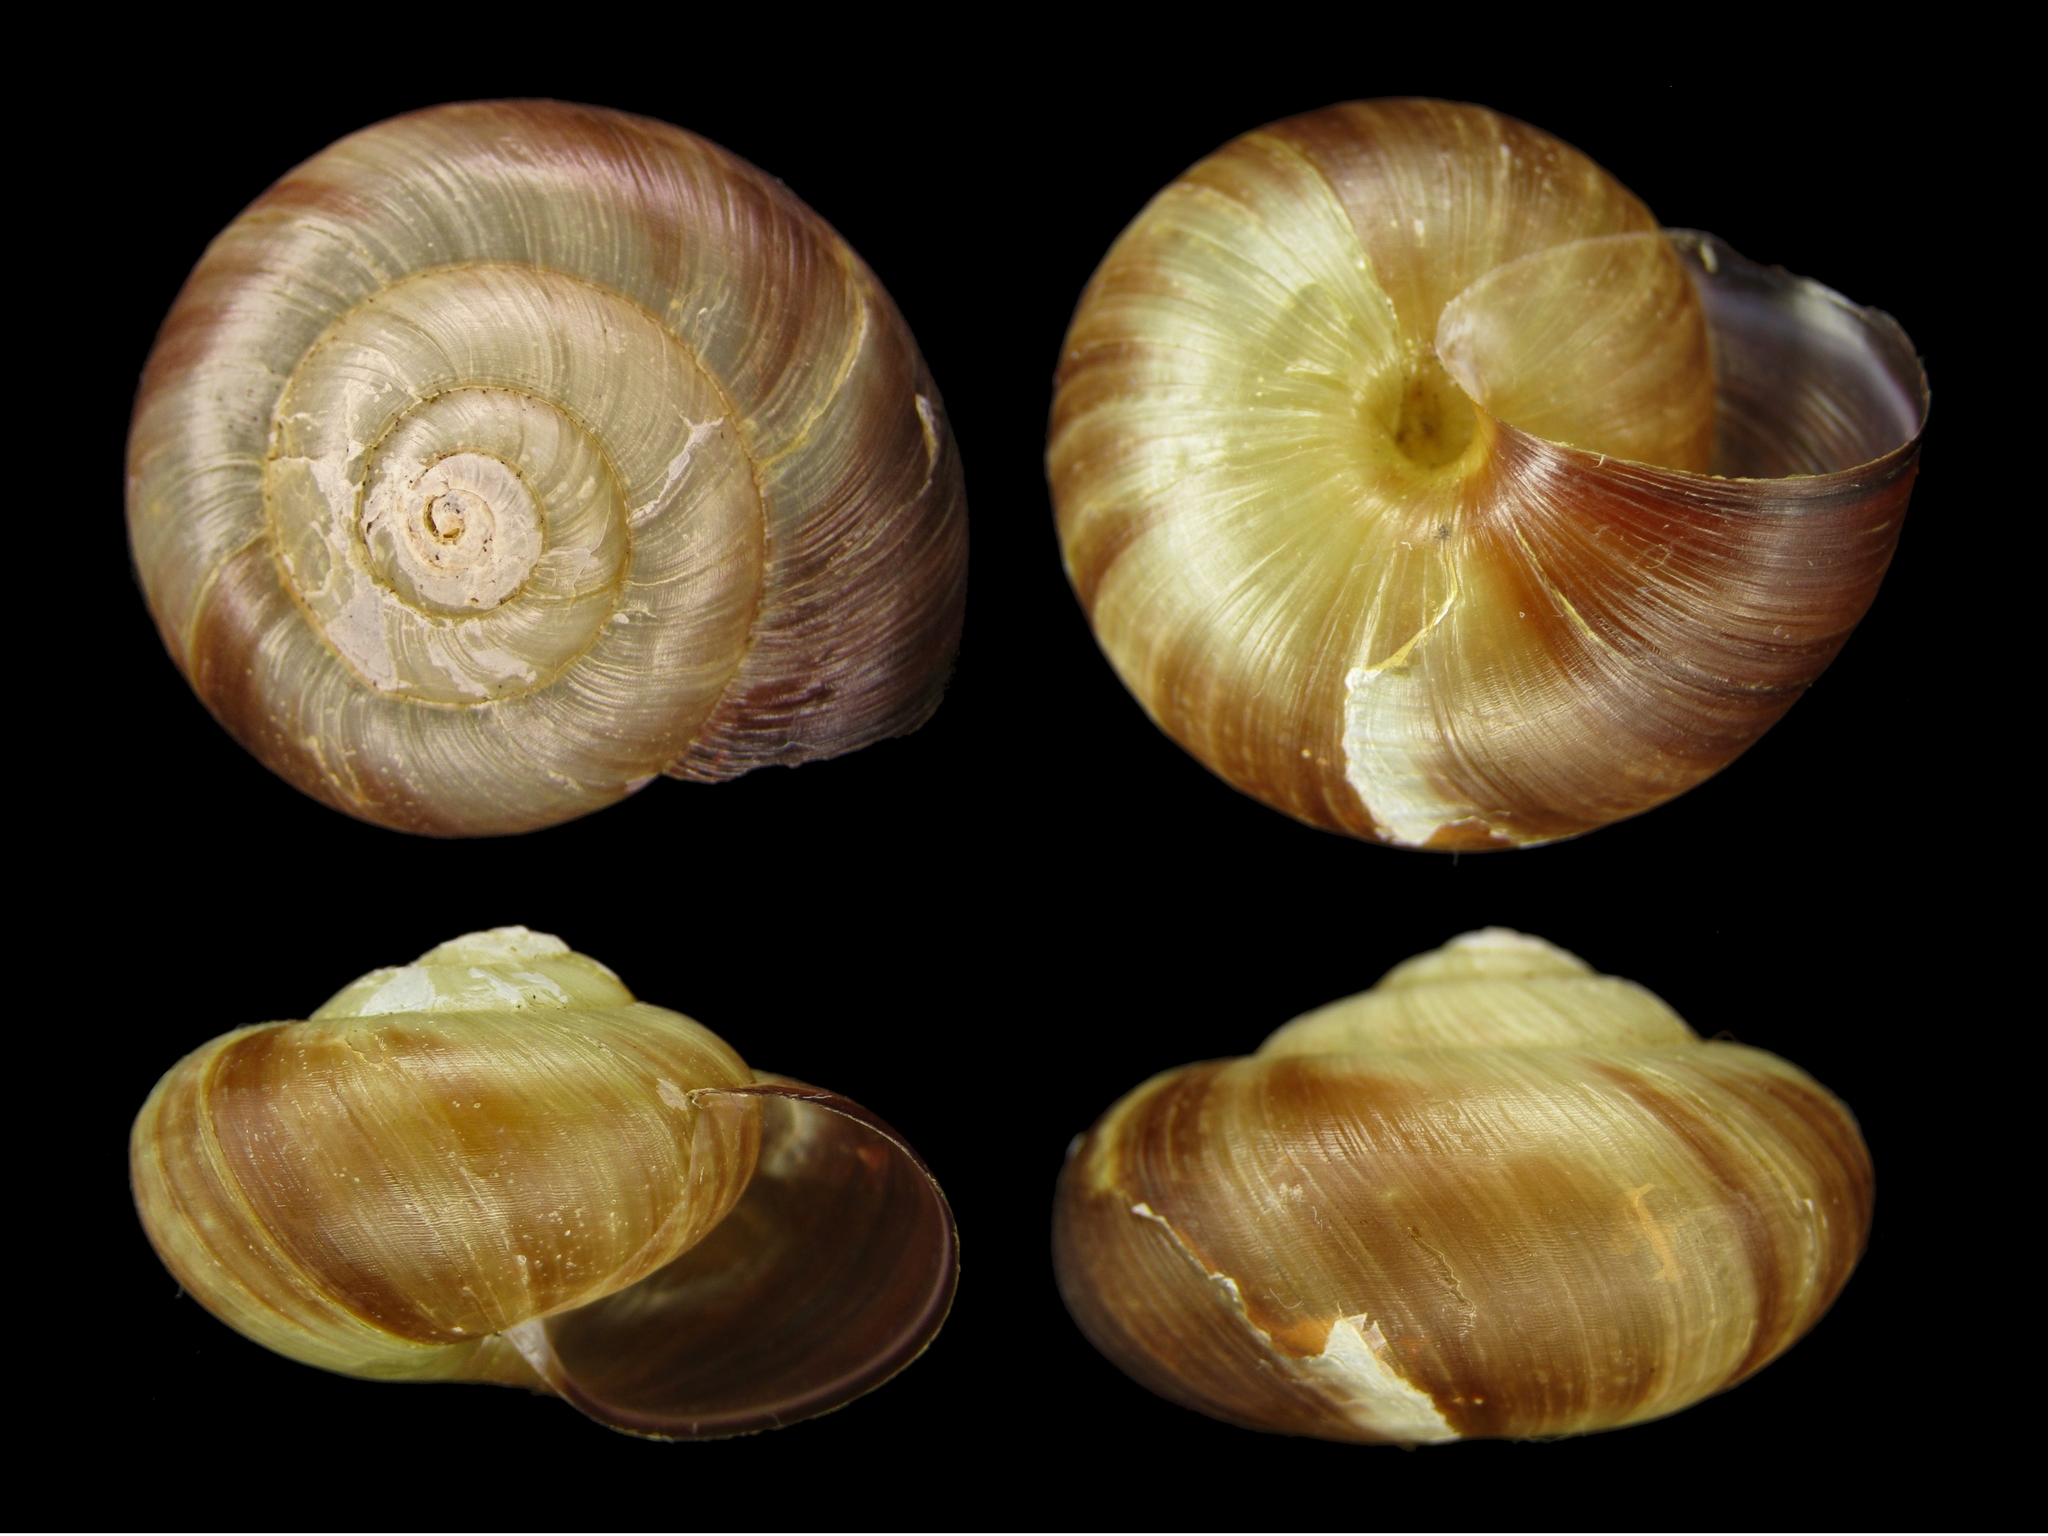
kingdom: Animalia
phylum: Mollusca
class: Gastropoda
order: Stylommatophora
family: Camaenidae
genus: Euhadra
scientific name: Euhadra amaliae
